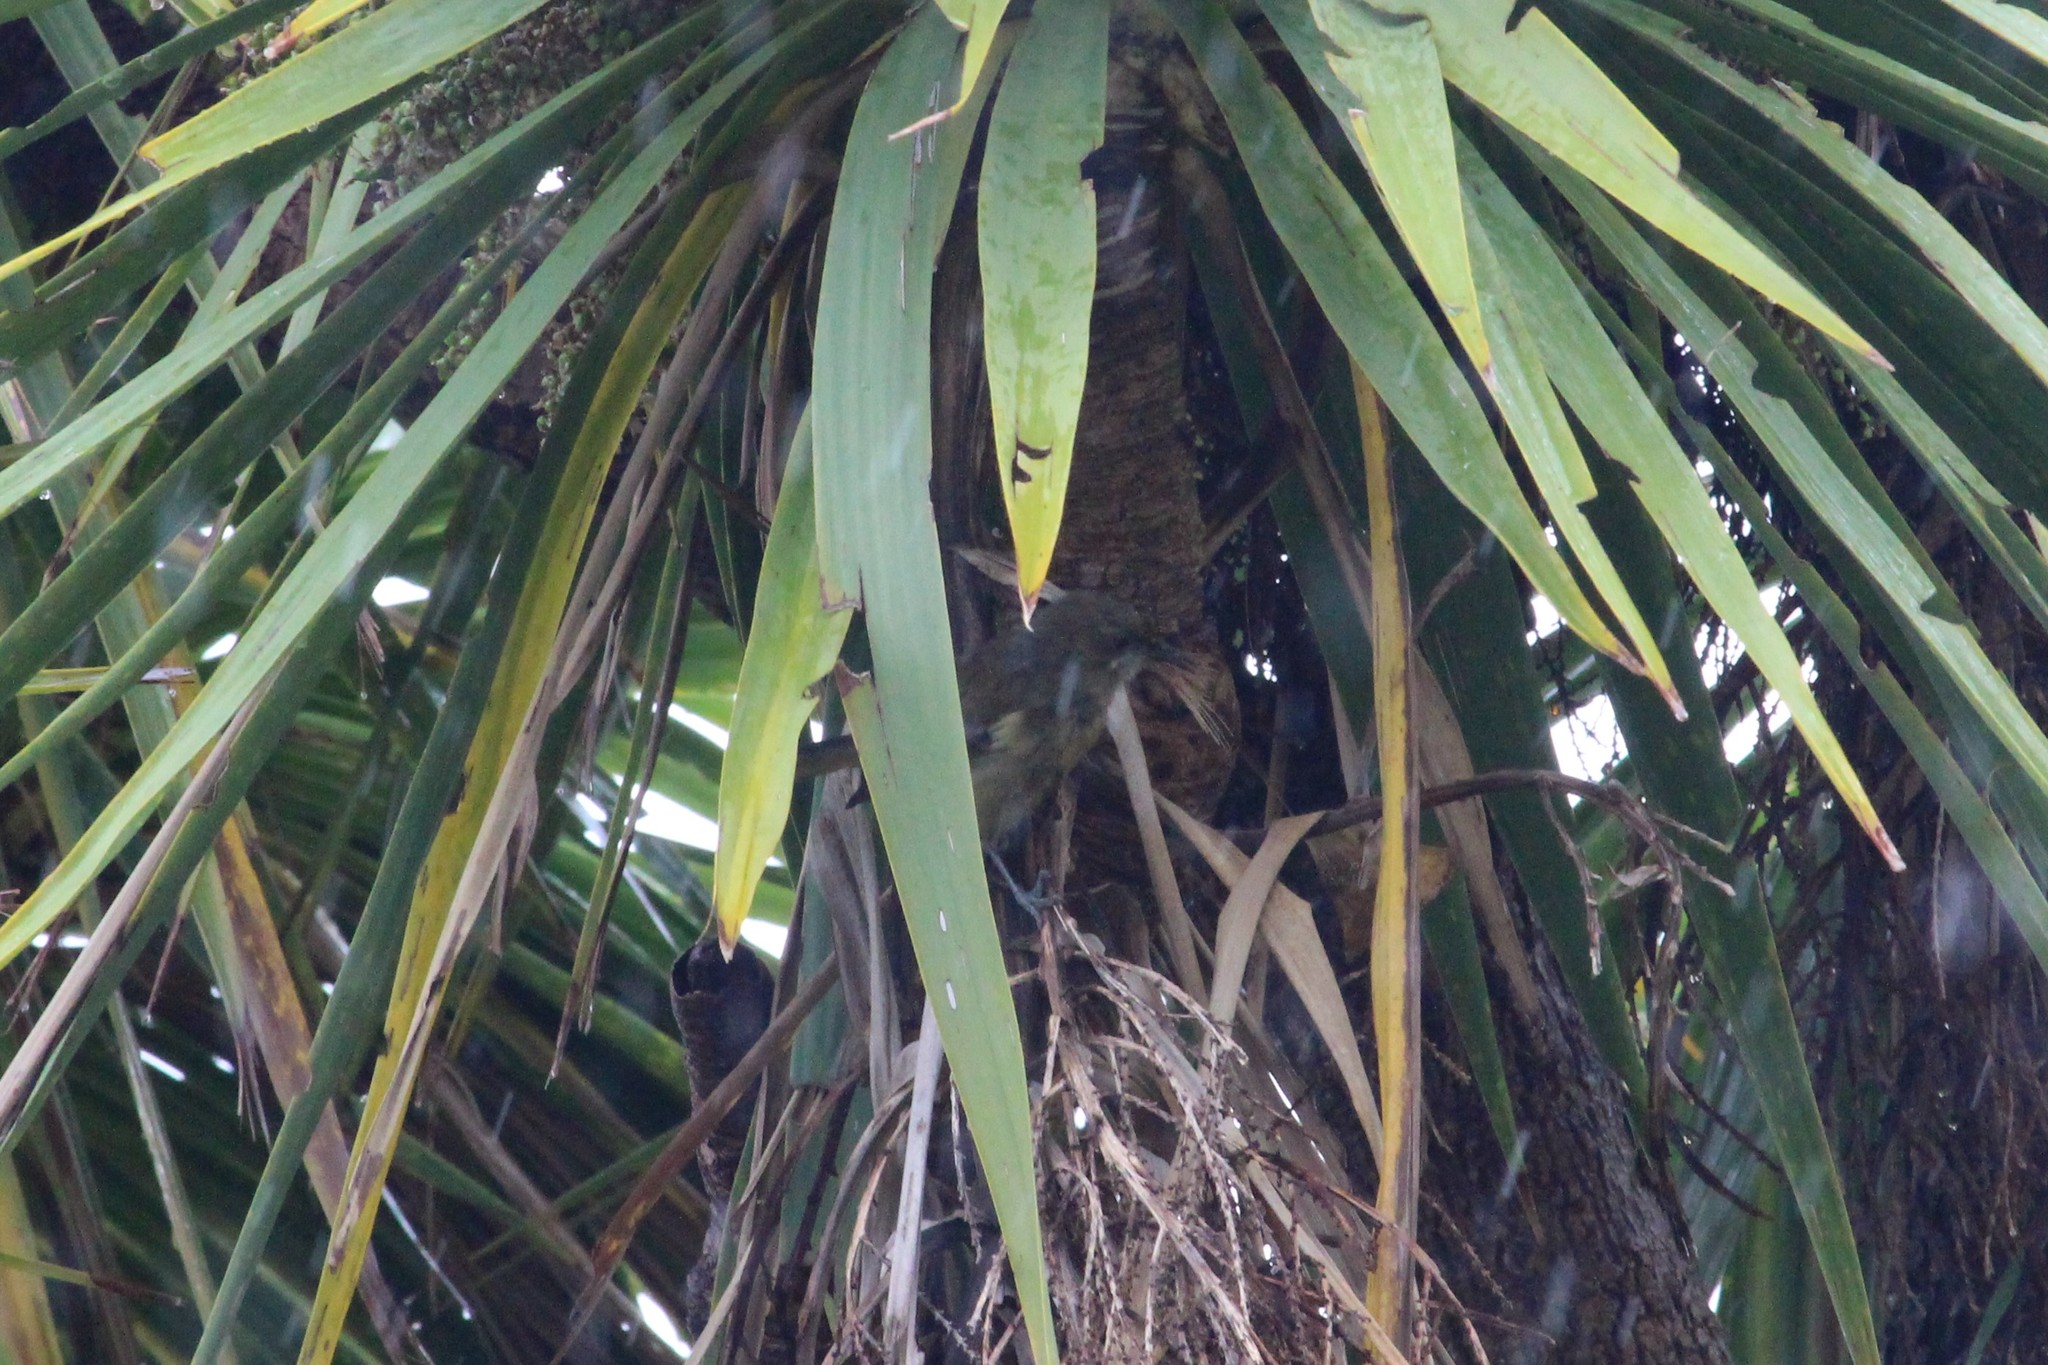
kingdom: Animalia
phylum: Chordata
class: Aves
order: Passeriformes
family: Meliphagidae
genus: Anthornis
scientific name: Anthornis melanura
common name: New zealand bellbird
